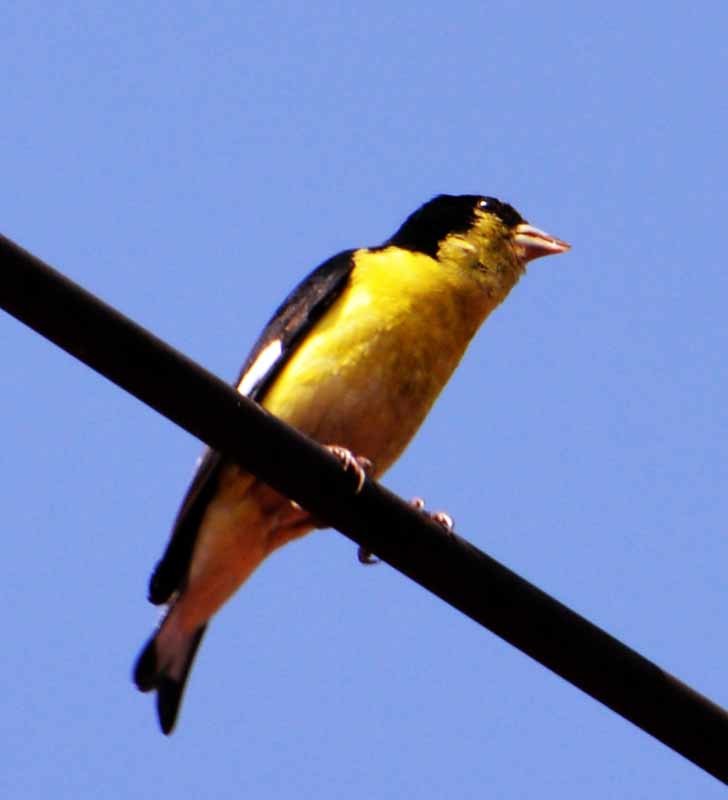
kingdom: Animalia
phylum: Chordata
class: Aves
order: Passeriformes
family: Fringillidae
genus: Spinus
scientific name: Spinus psaltria
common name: Lesser goldfinch
